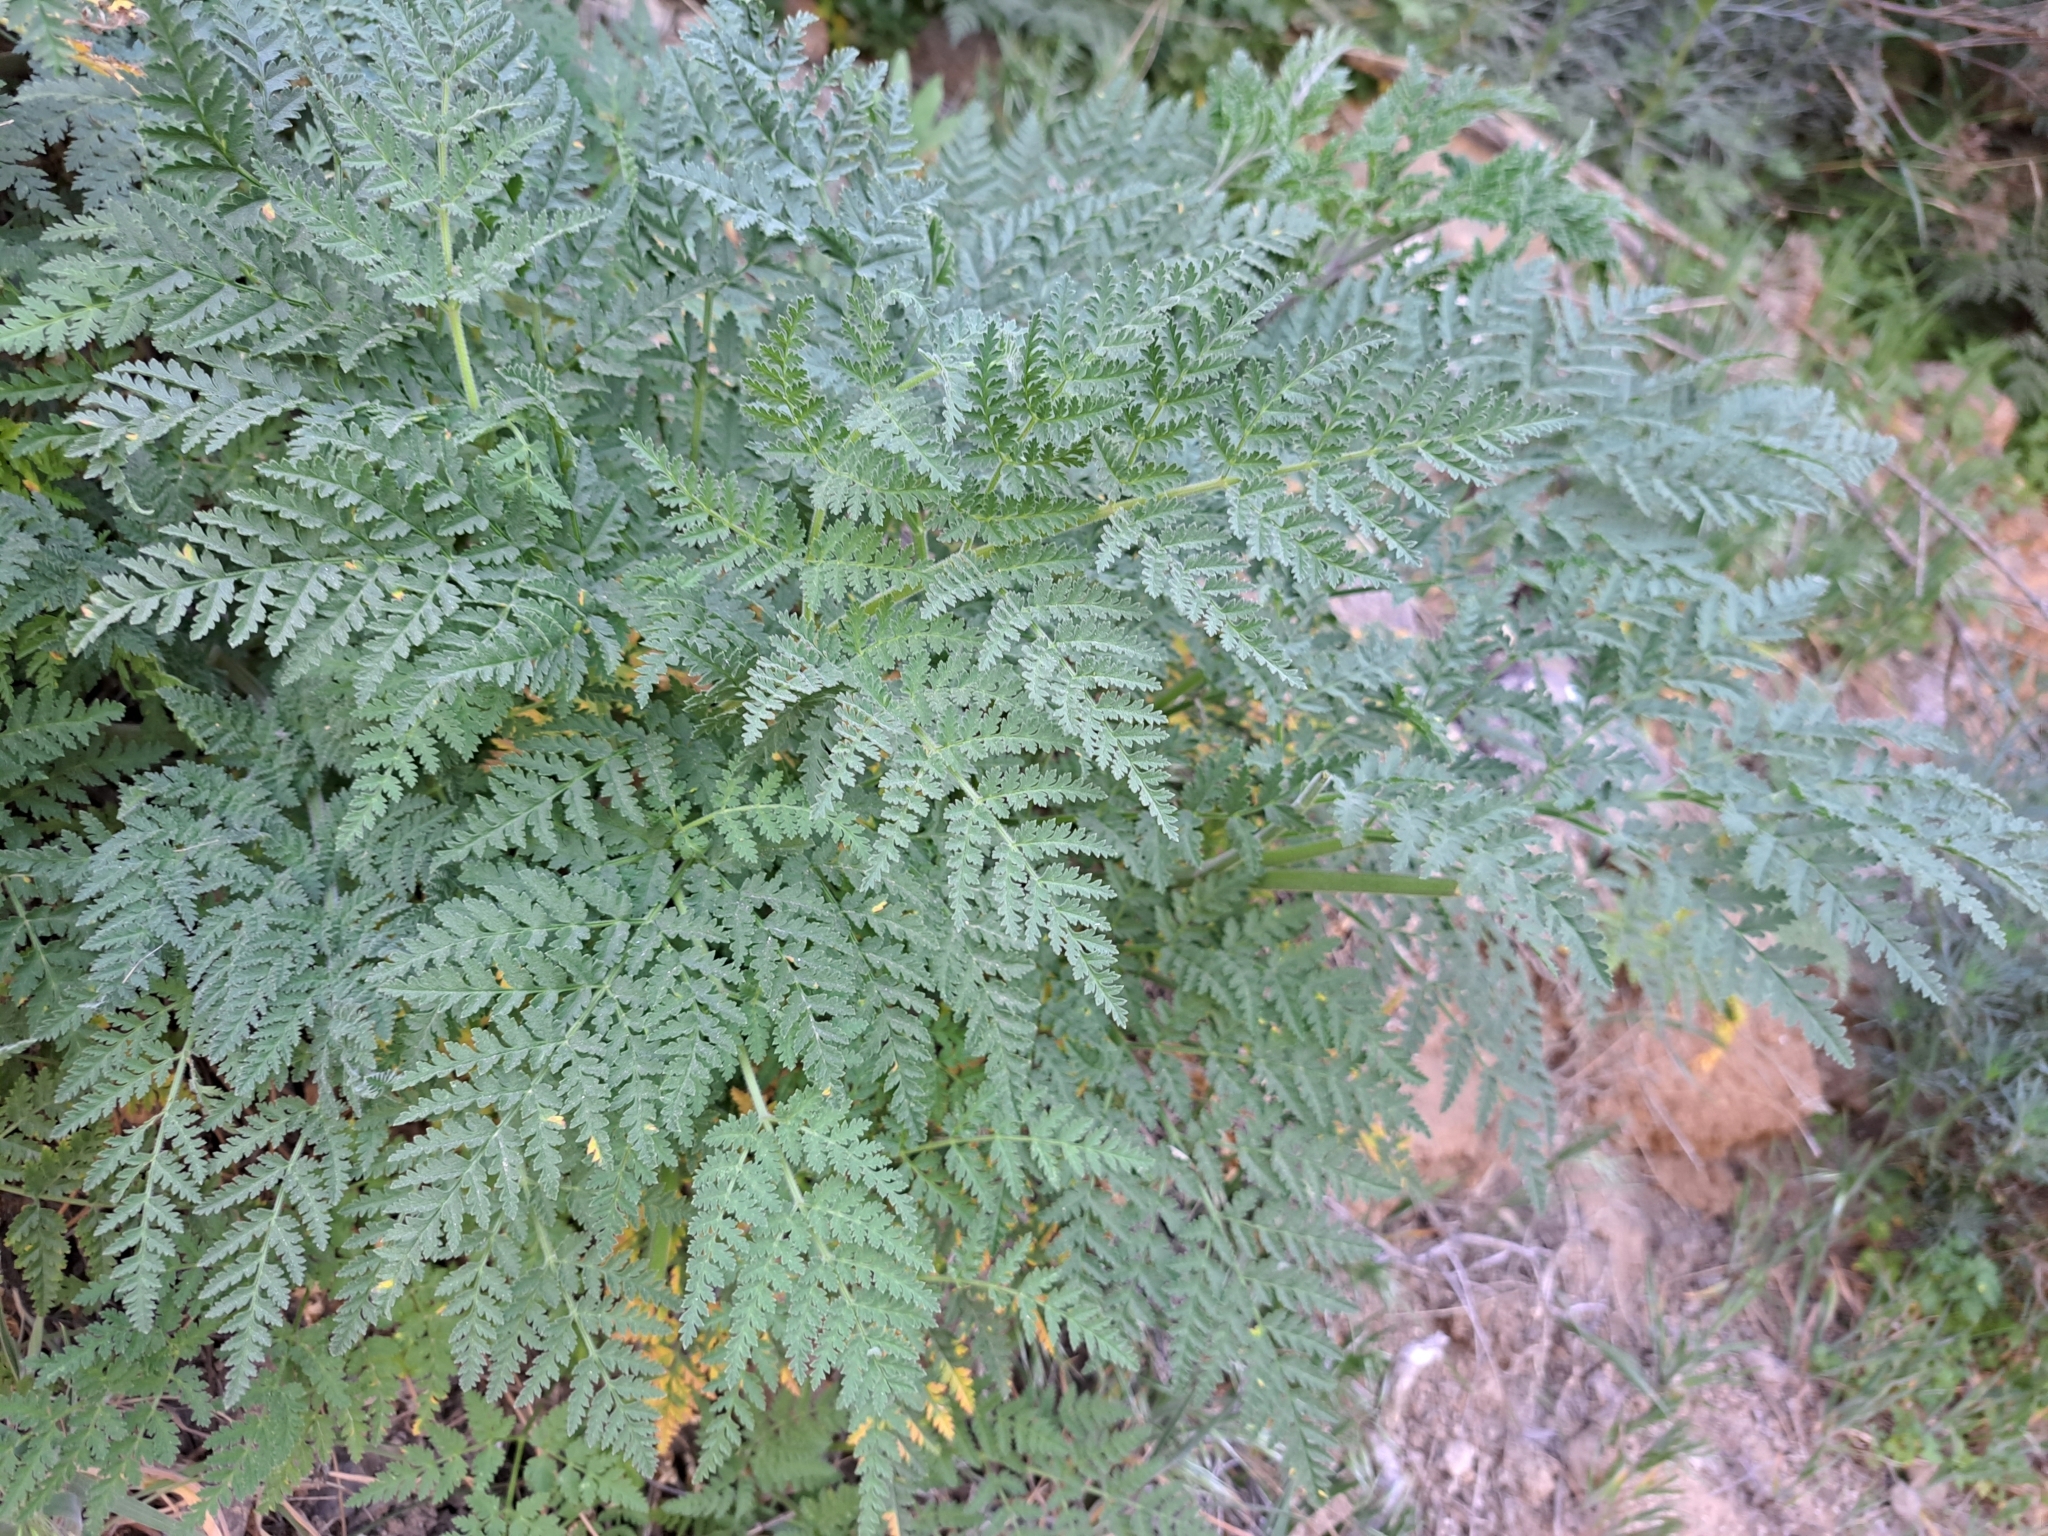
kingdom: Plantae
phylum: Tracheophyta
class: Magnoliopsida
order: Apiales
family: Apiaceae
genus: Athamanta
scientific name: Athamanta montana
